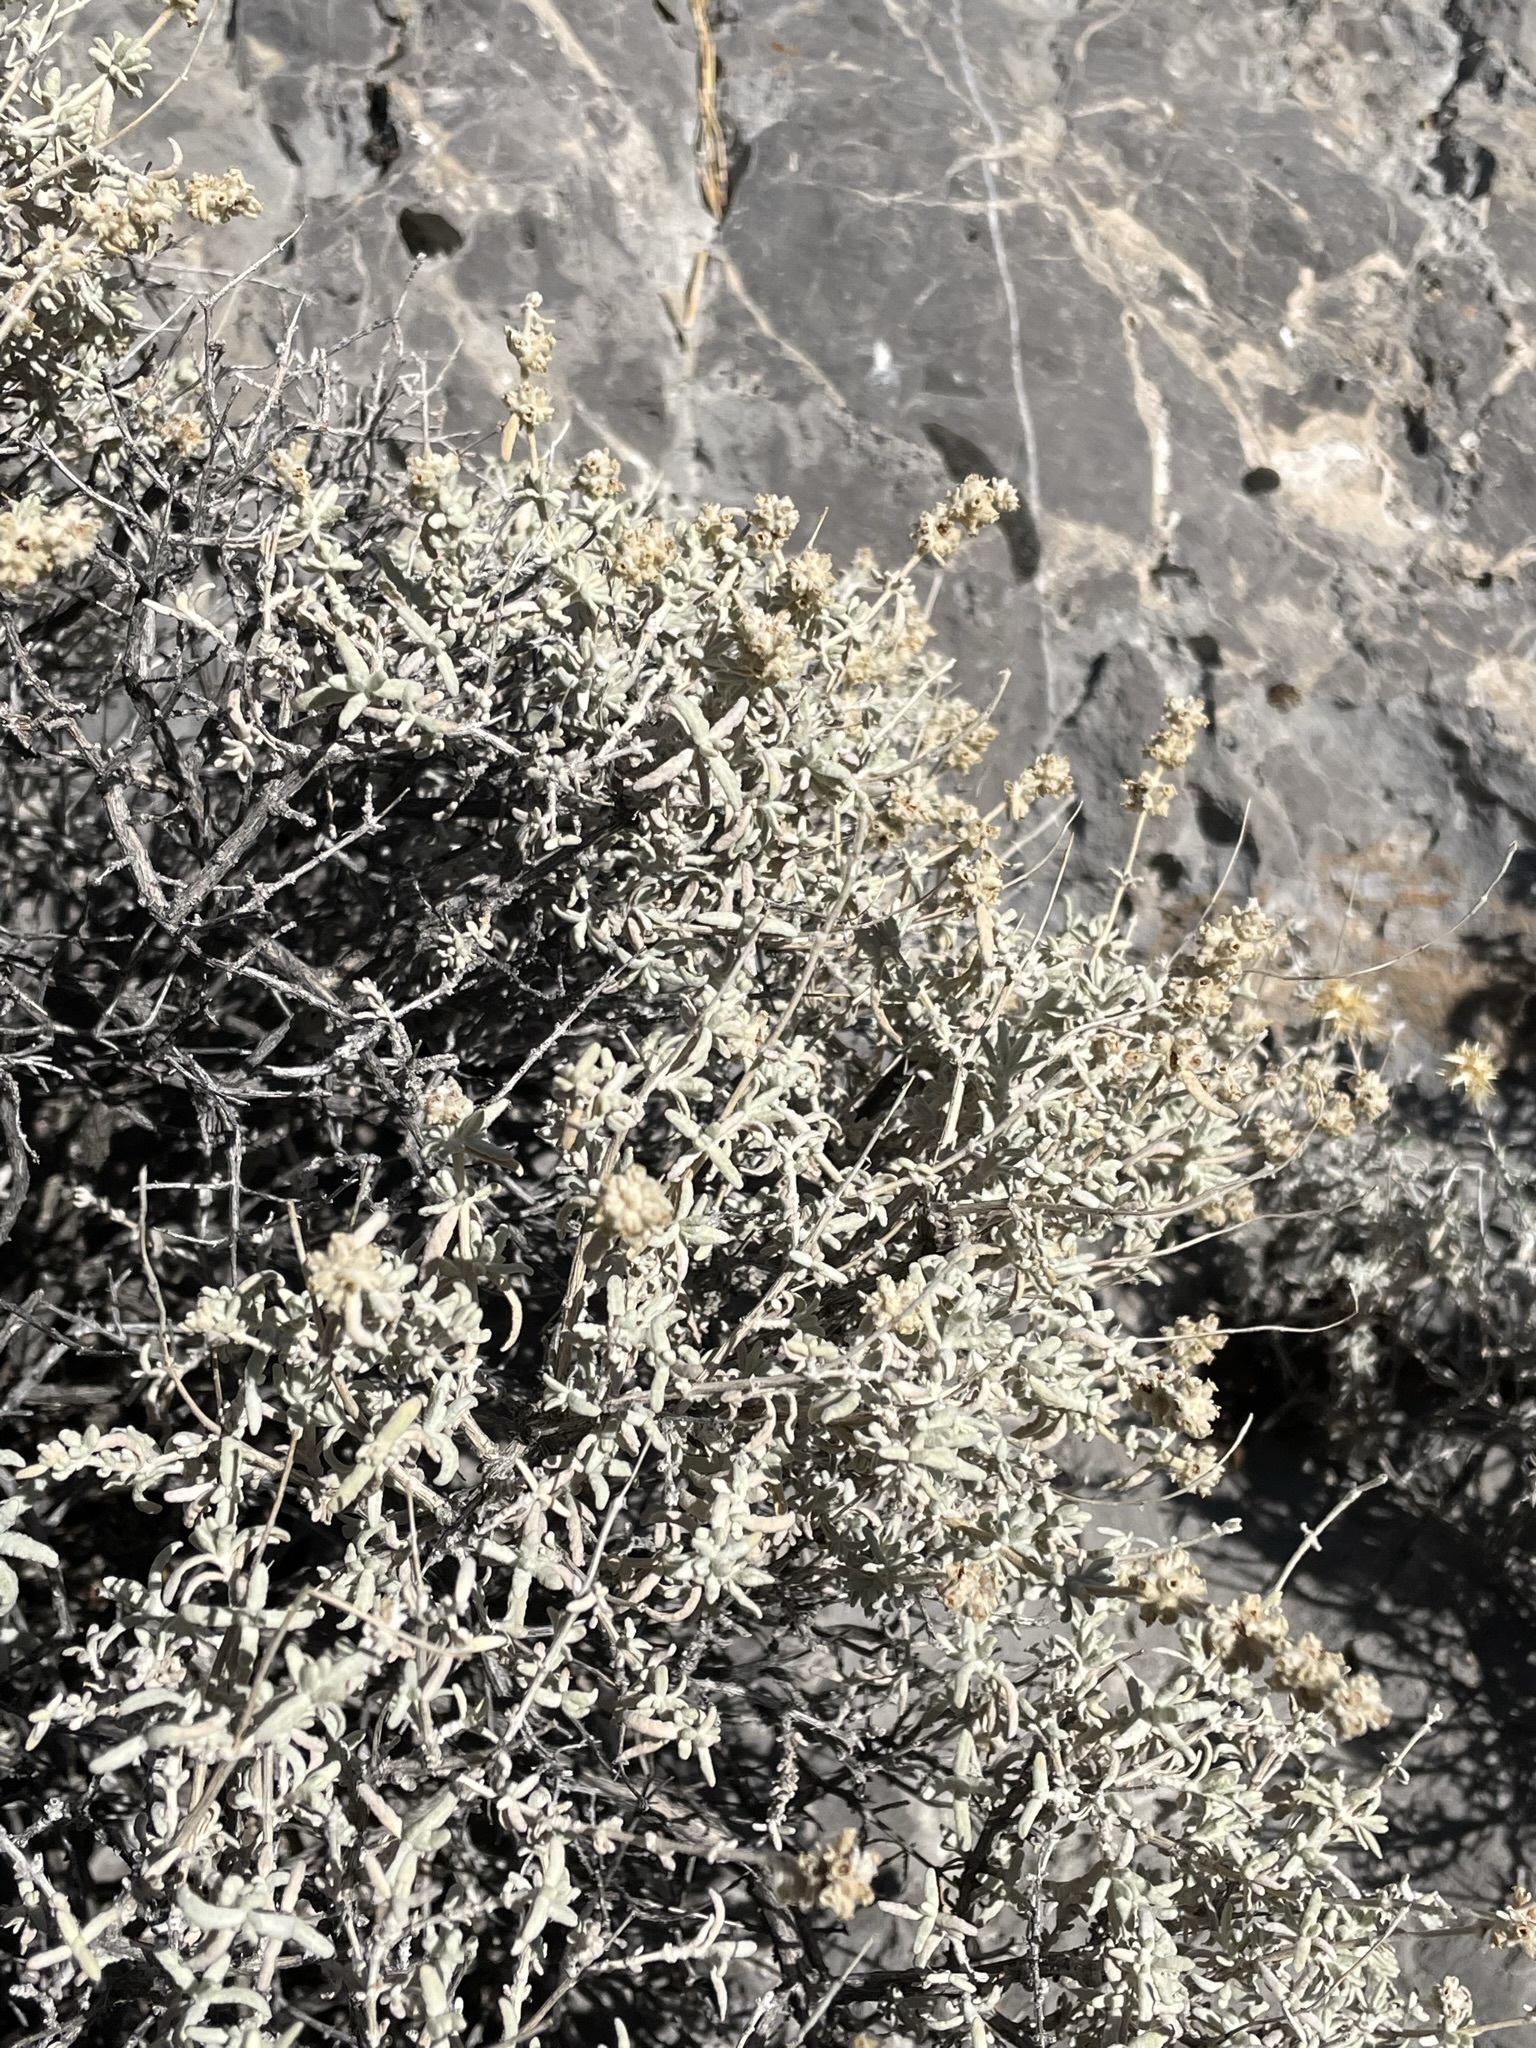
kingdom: Plantae
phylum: Tracheophyta
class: Magnoliopsida
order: Lamiales
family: Scrophulariaceae
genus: Buddleja
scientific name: Buddleja utahensis
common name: Utah butterfly-bush
